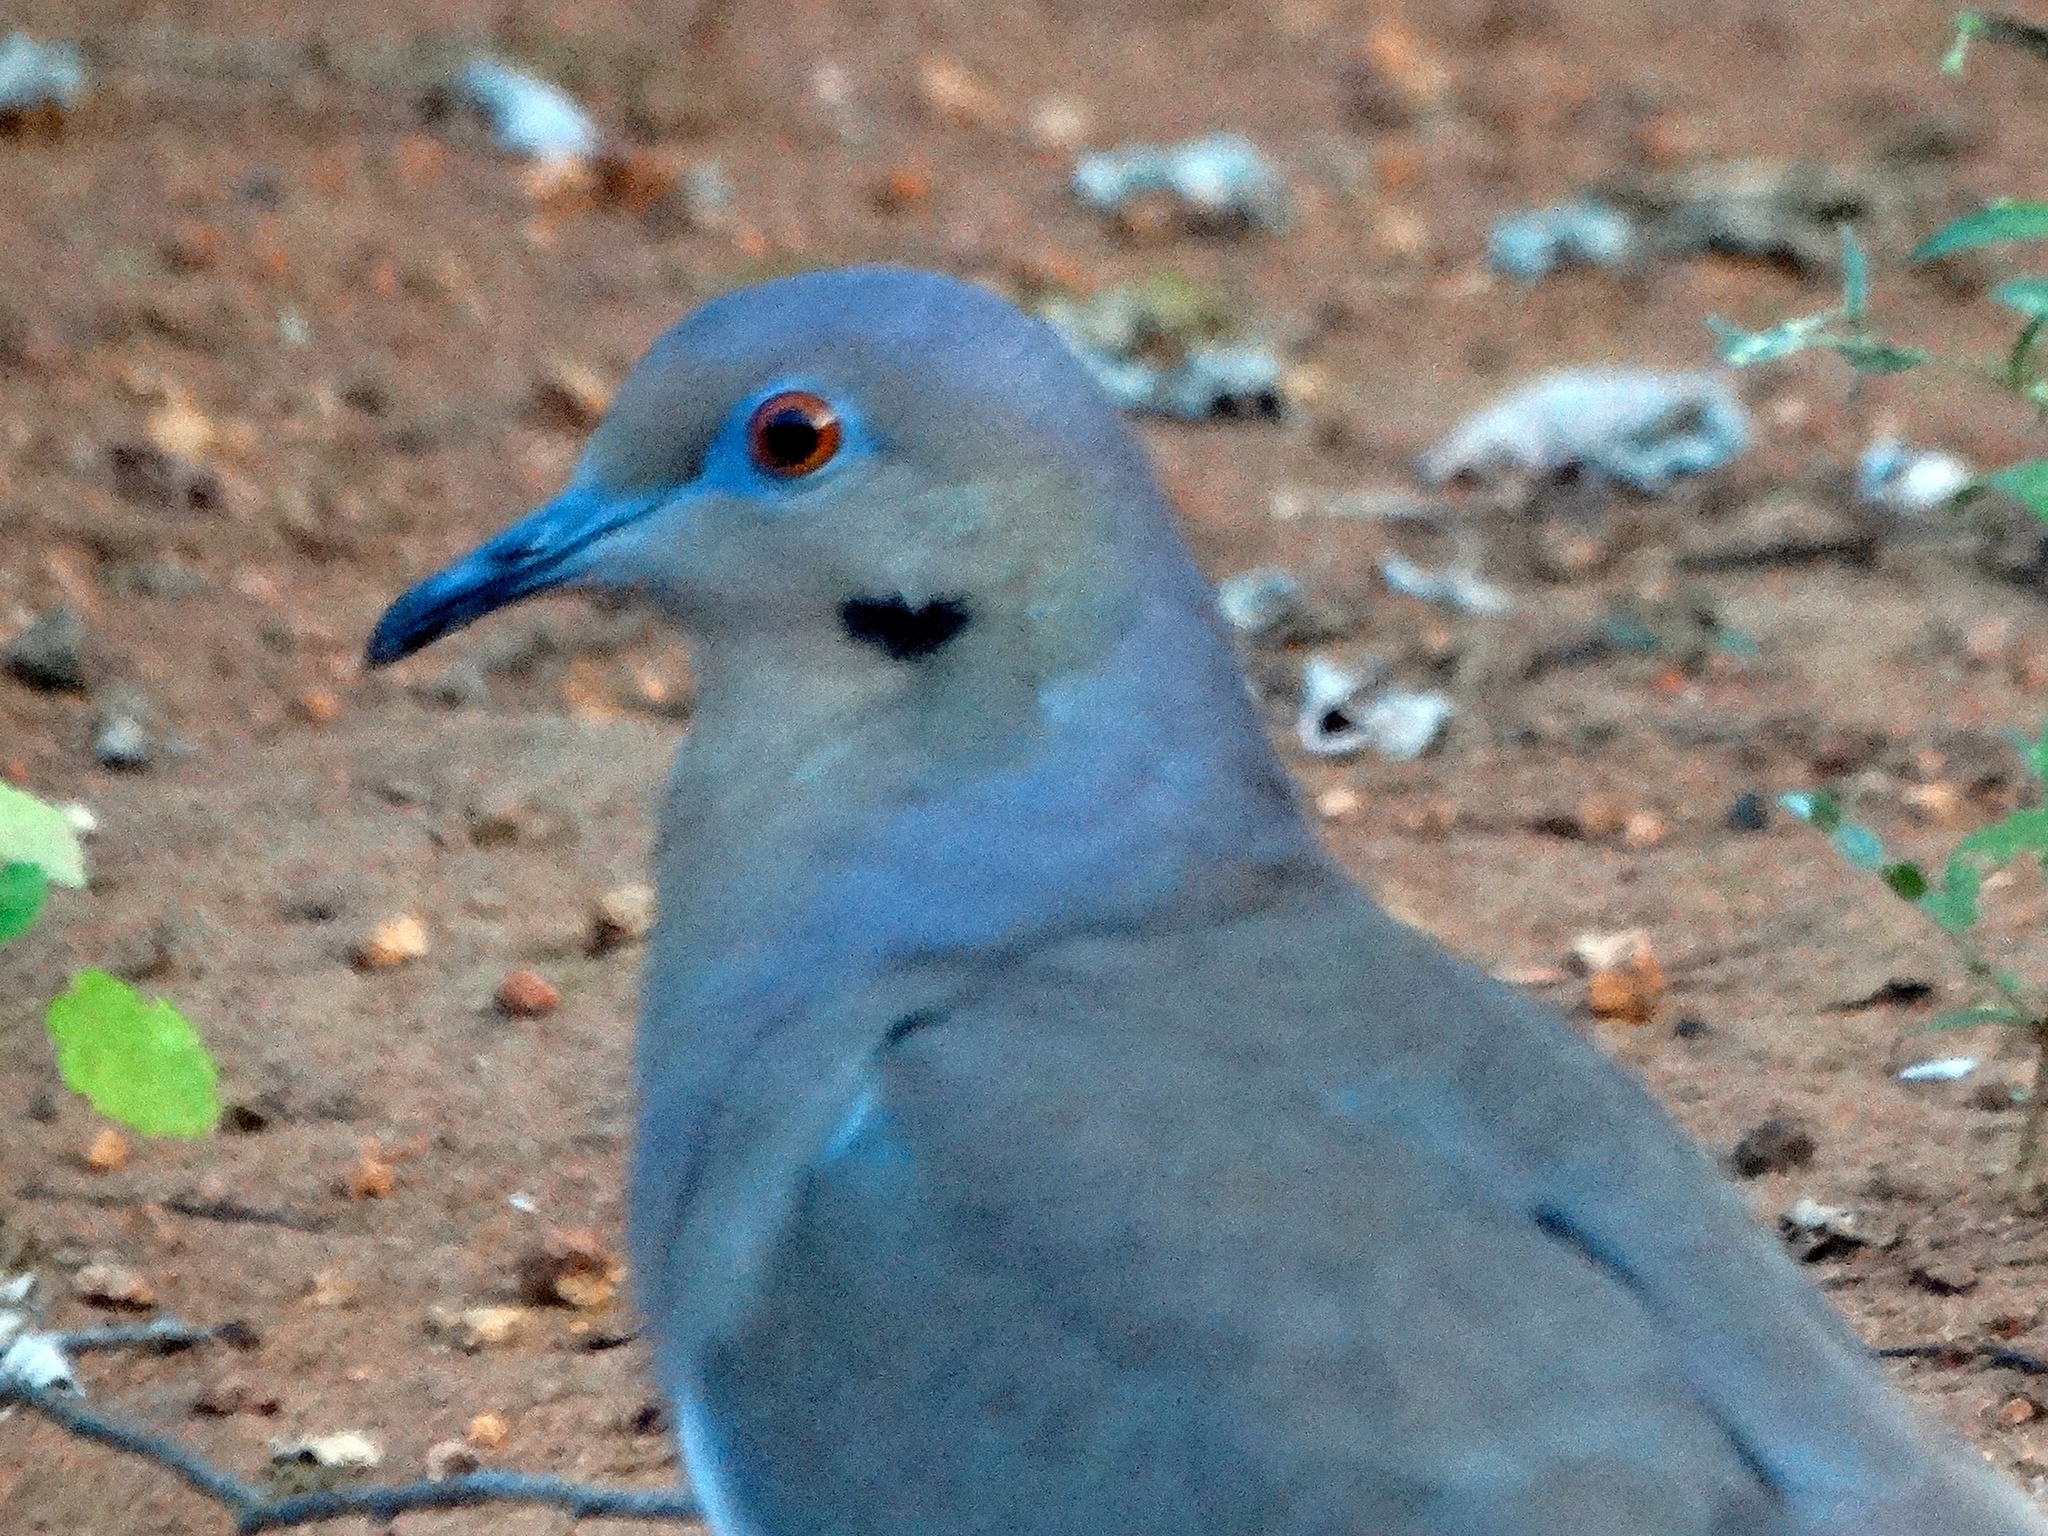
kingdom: Animalia
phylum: Chordata
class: Aves
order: Columbiformes
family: Columbidae
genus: Zenaida
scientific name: Zenaida asiatica
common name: White-winged dove
